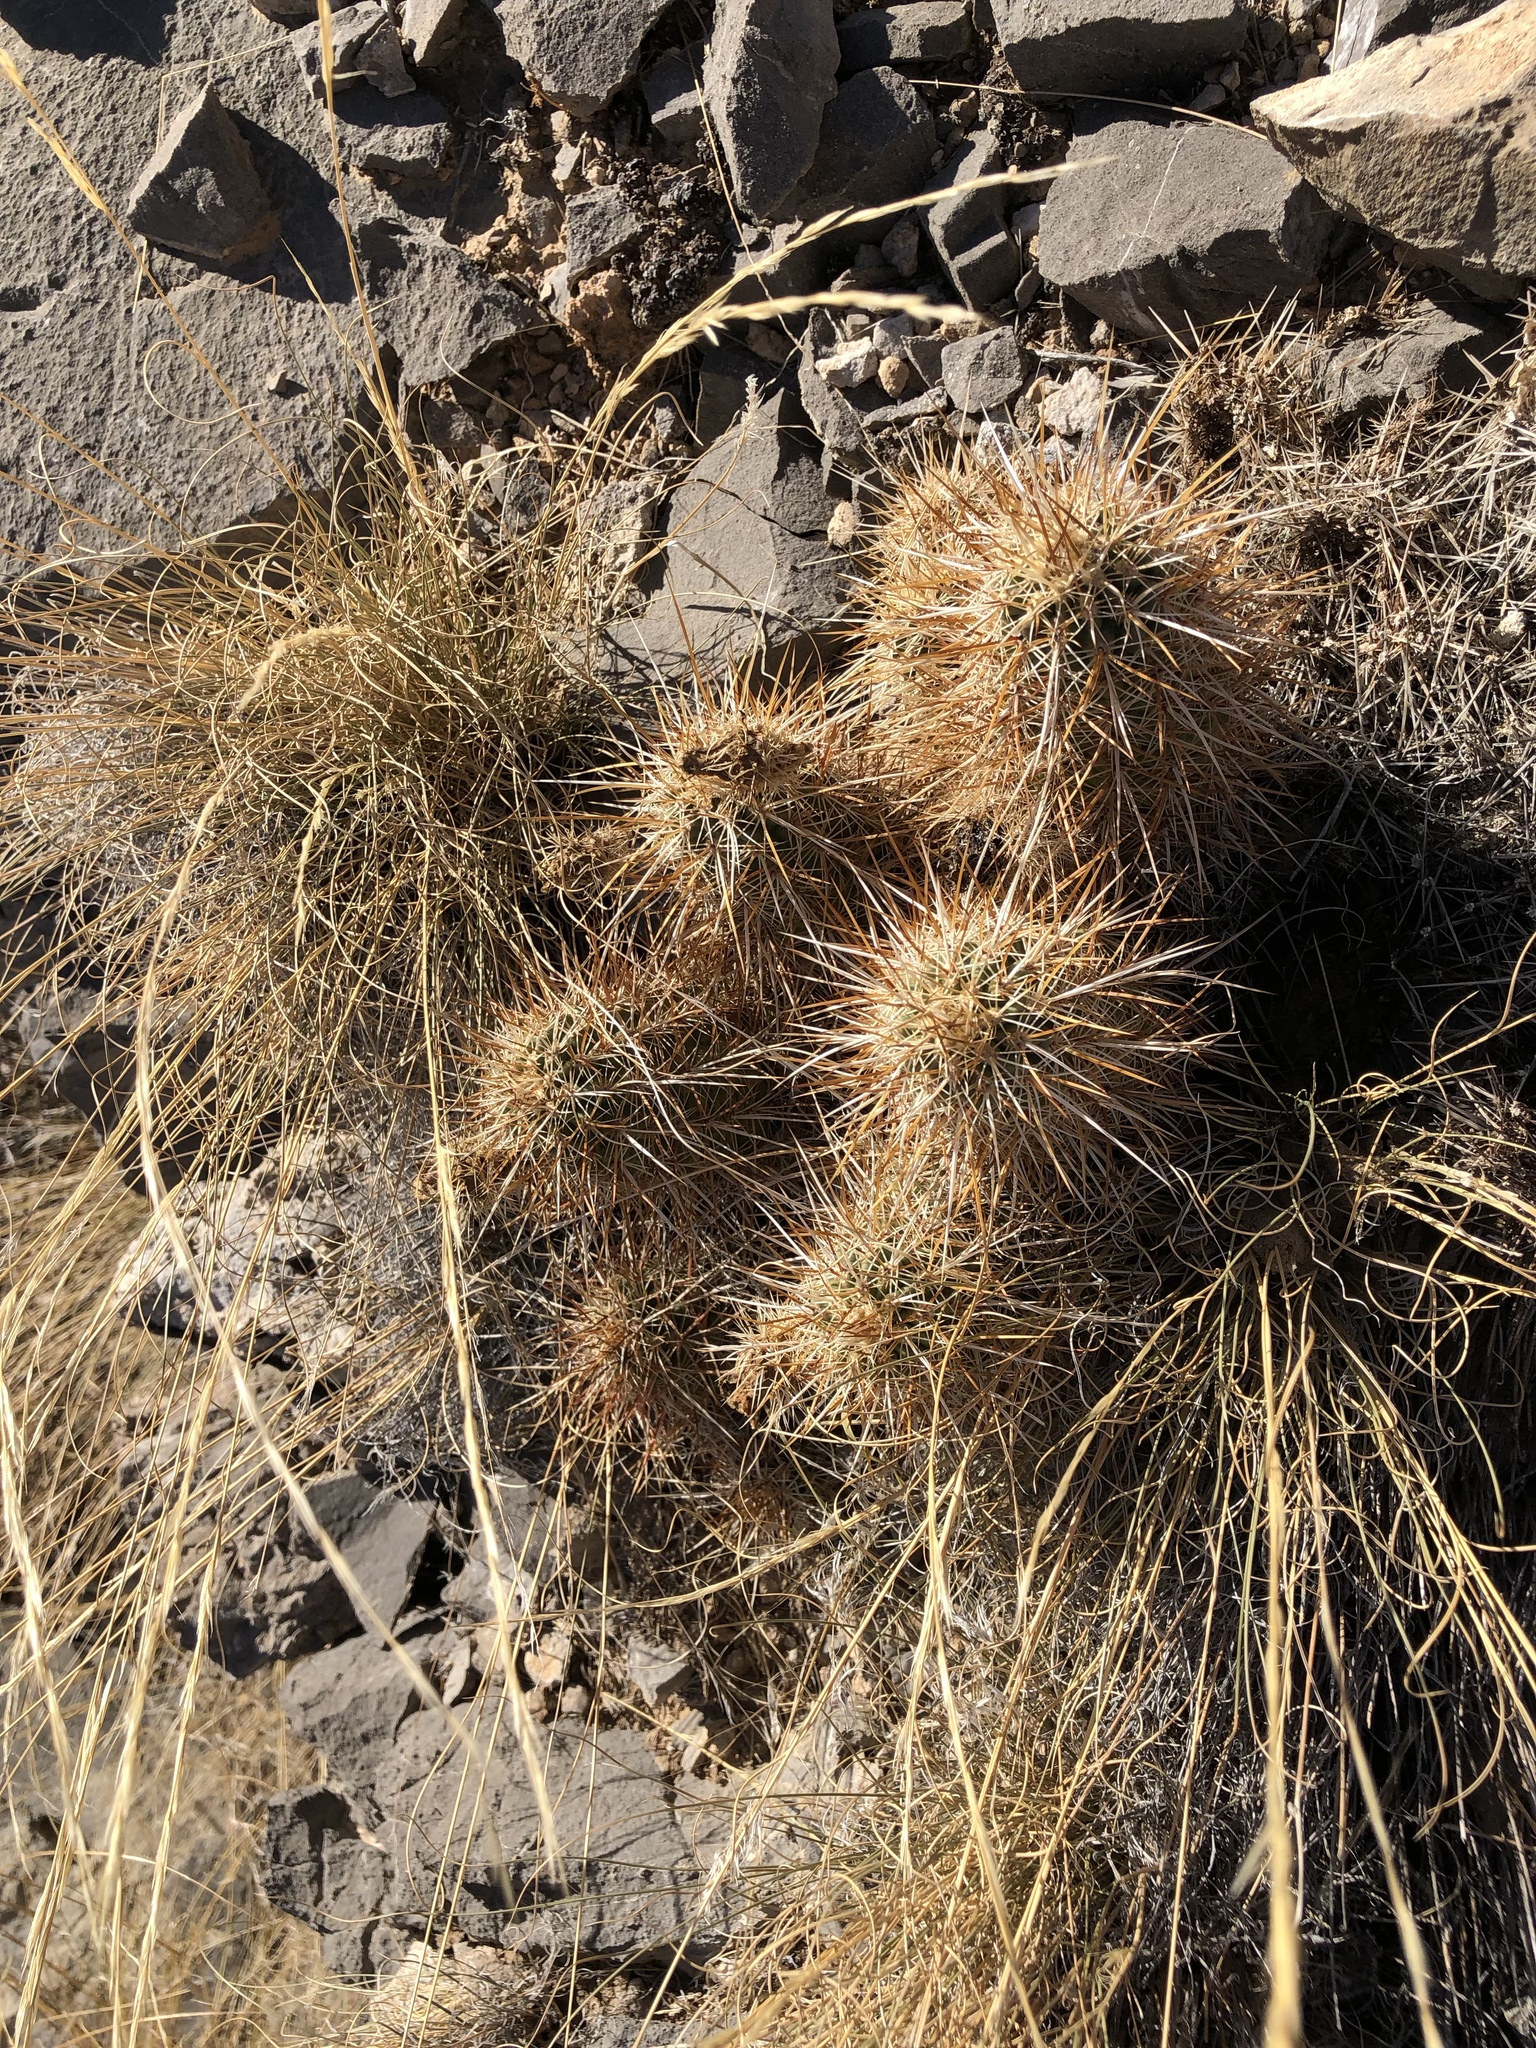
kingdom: Plantae
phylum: Tracheophyta
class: Magnoliopsida
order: Caryophyllales
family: Cactaceae
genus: Echinocereus
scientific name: Echinocereus engelmannii
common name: Engelmann's hedgehog cactus
